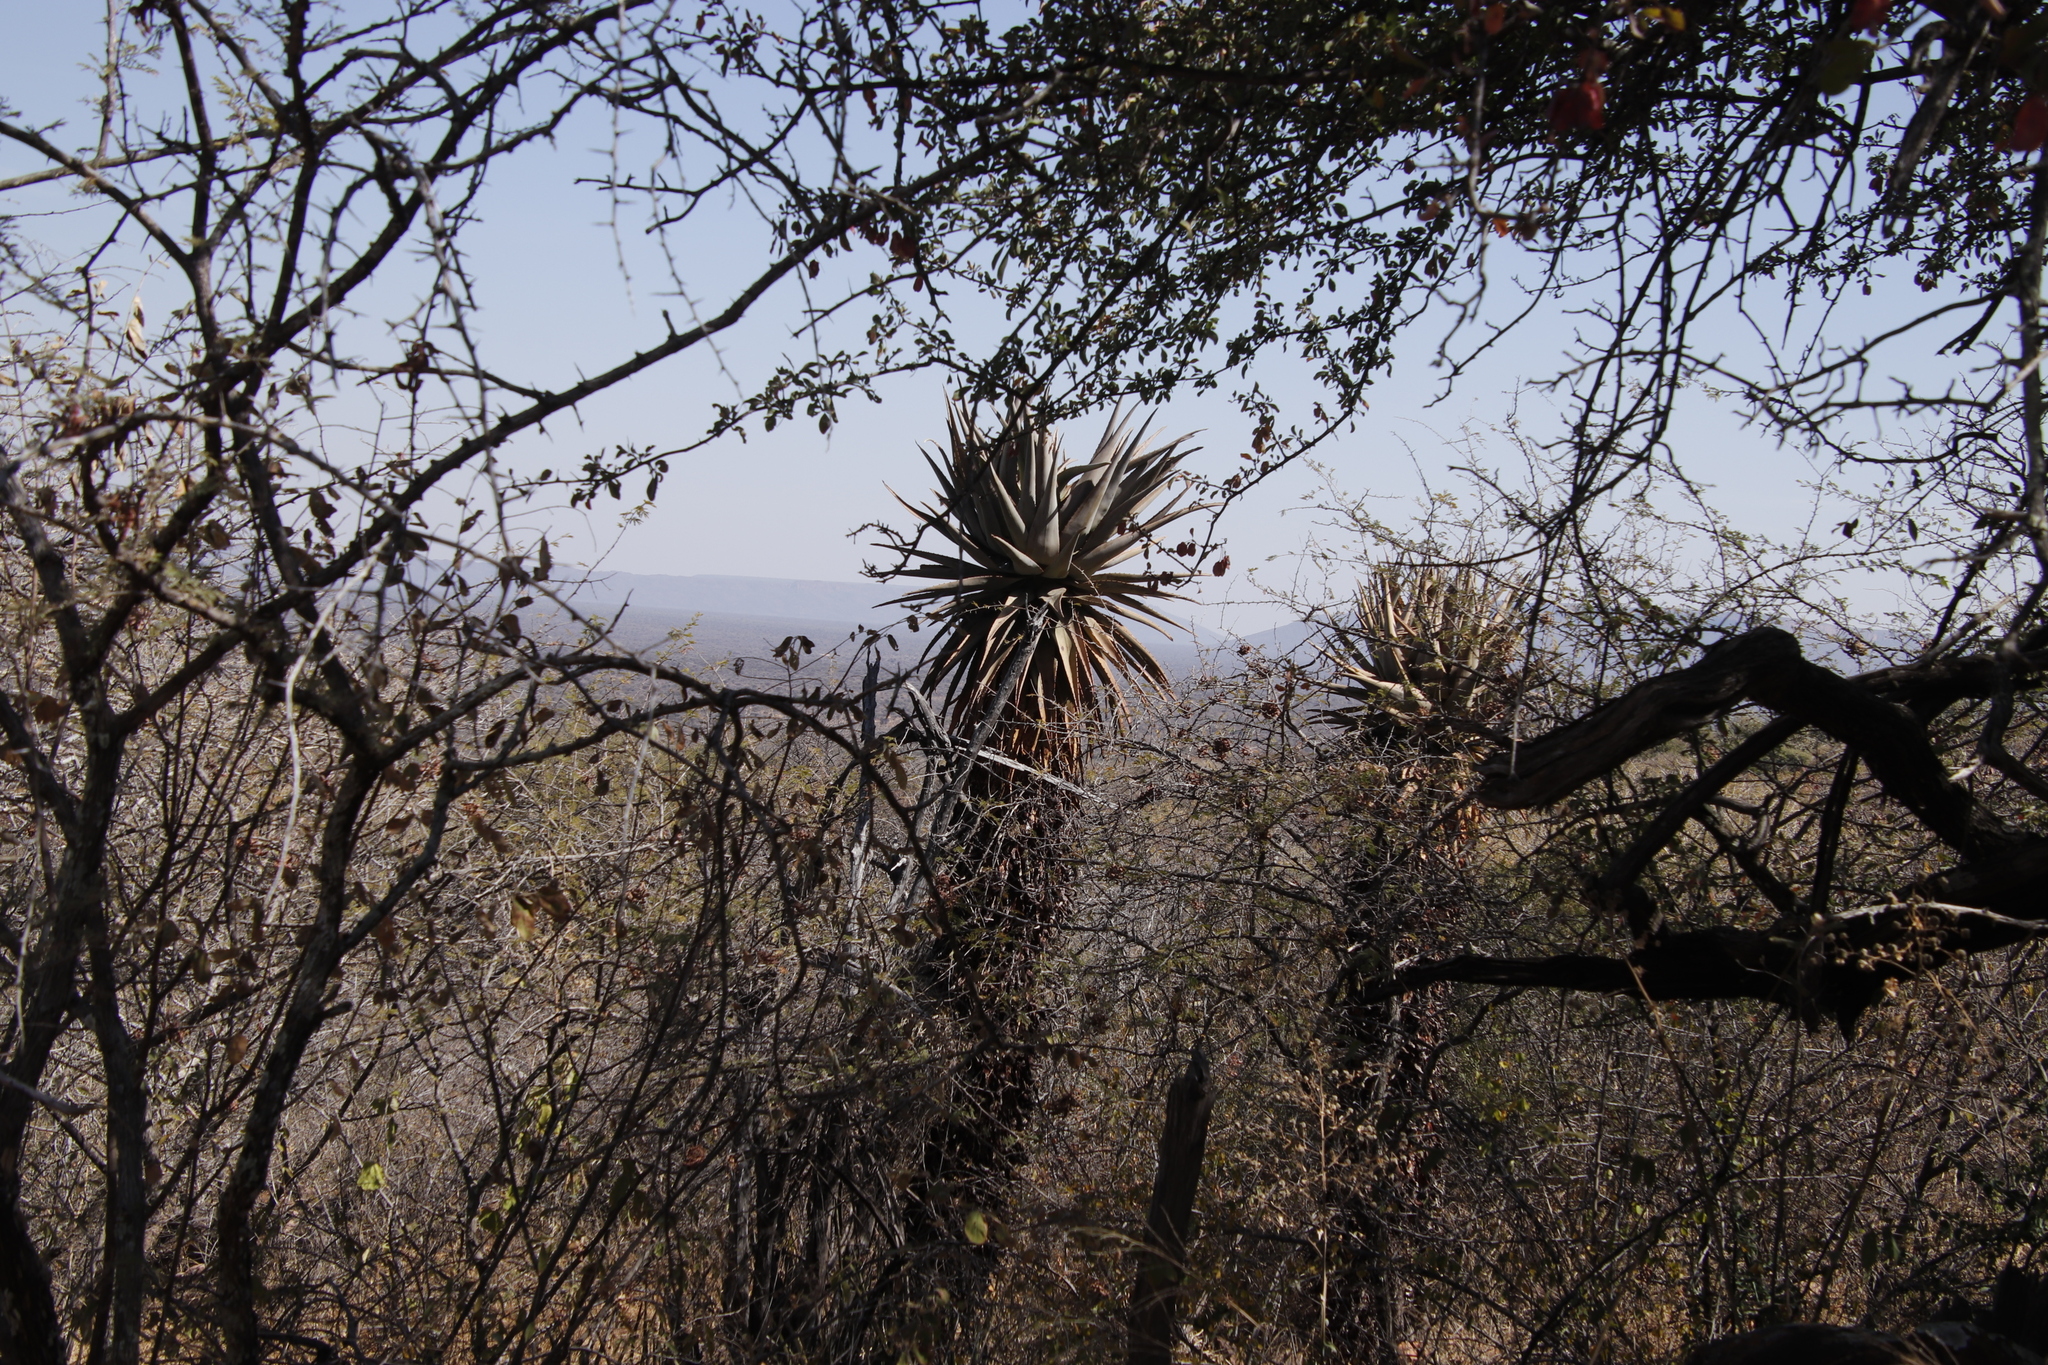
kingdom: Plantae
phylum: Tracheophyta
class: Liliopsida
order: Asparagales
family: Asphodelaceae
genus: Aloe
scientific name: Aloe littoralis
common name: Luanda tree aloe
